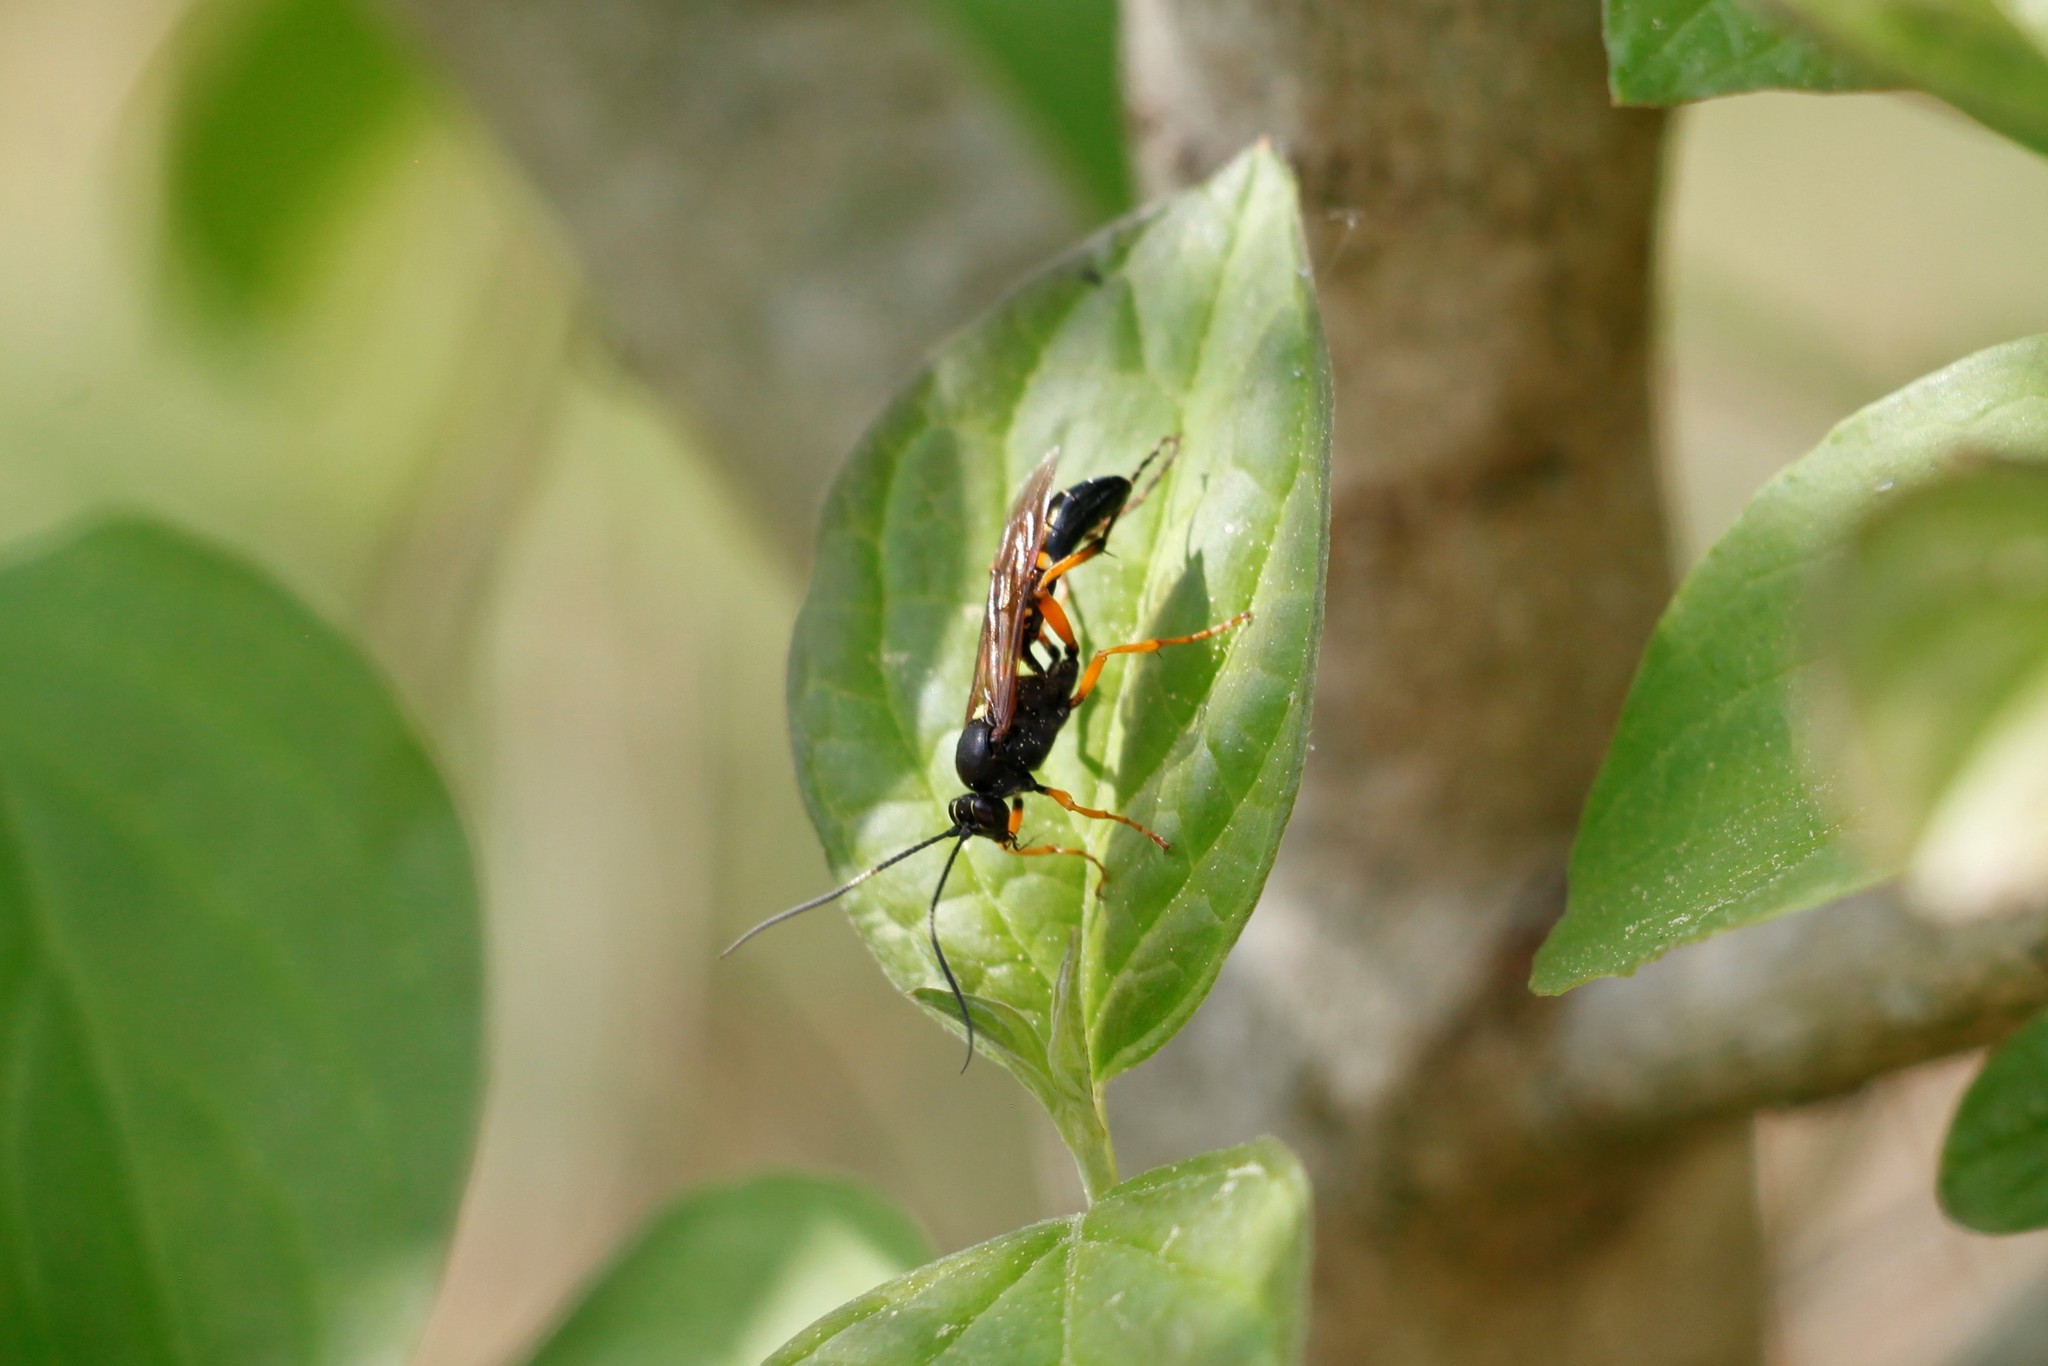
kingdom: Animalia
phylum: Arthropoda
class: Insecta
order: Hymenoptera
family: Ichneumonidae
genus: Diphyus
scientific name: Diphyus quadripunctorius
